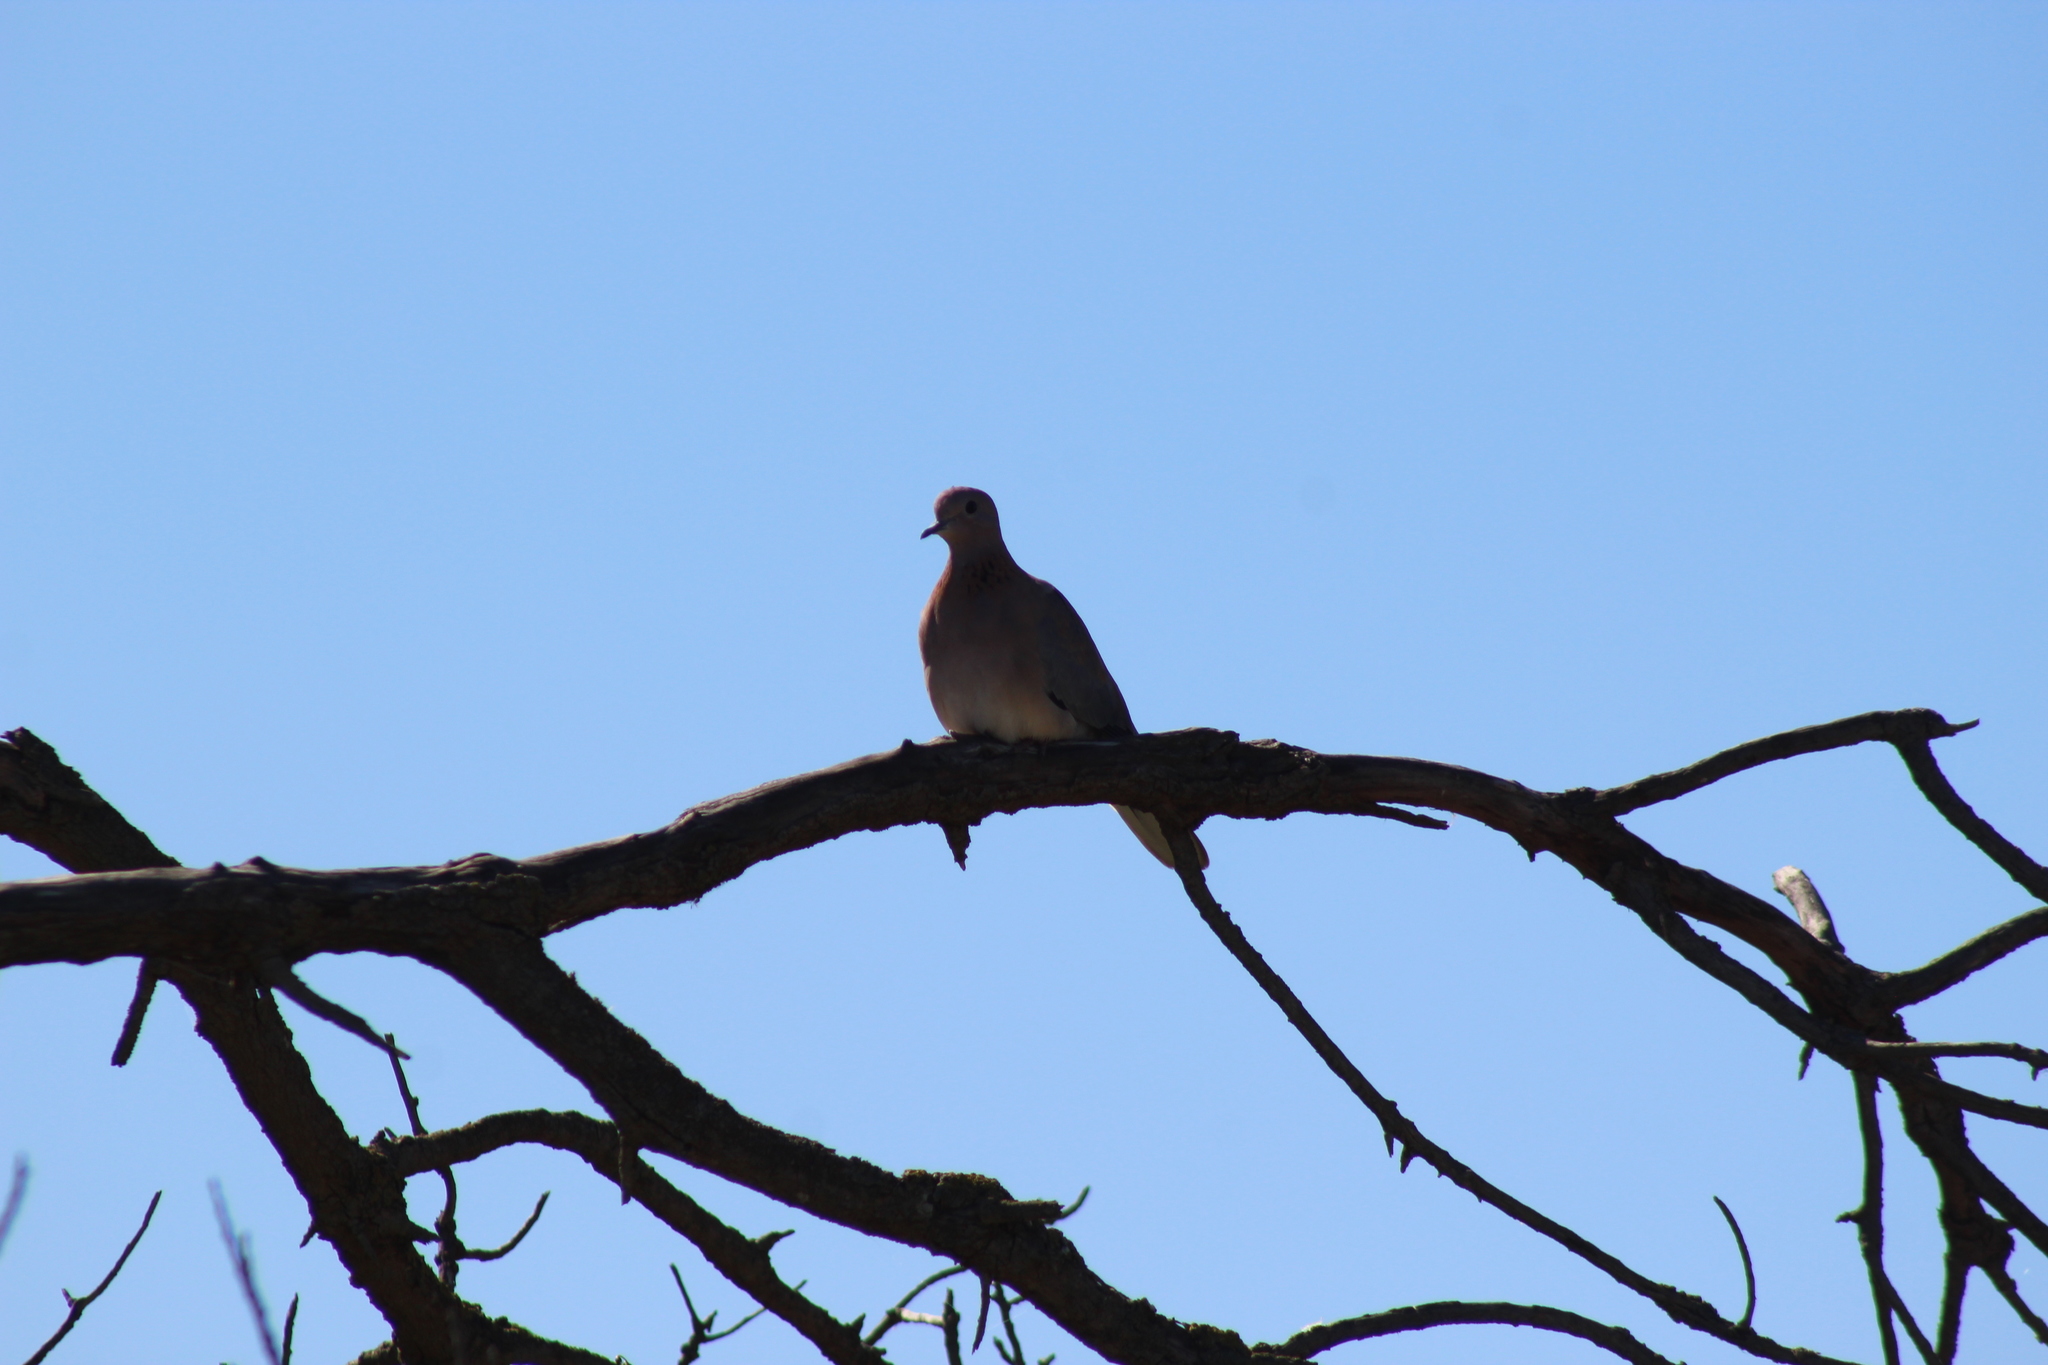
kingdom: Animalia
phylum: Chordata
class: Aves
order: Columbiformes
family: Columbidae
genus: Spilopelia
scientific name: Spilopelia senegalensis
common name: Laughing dove
